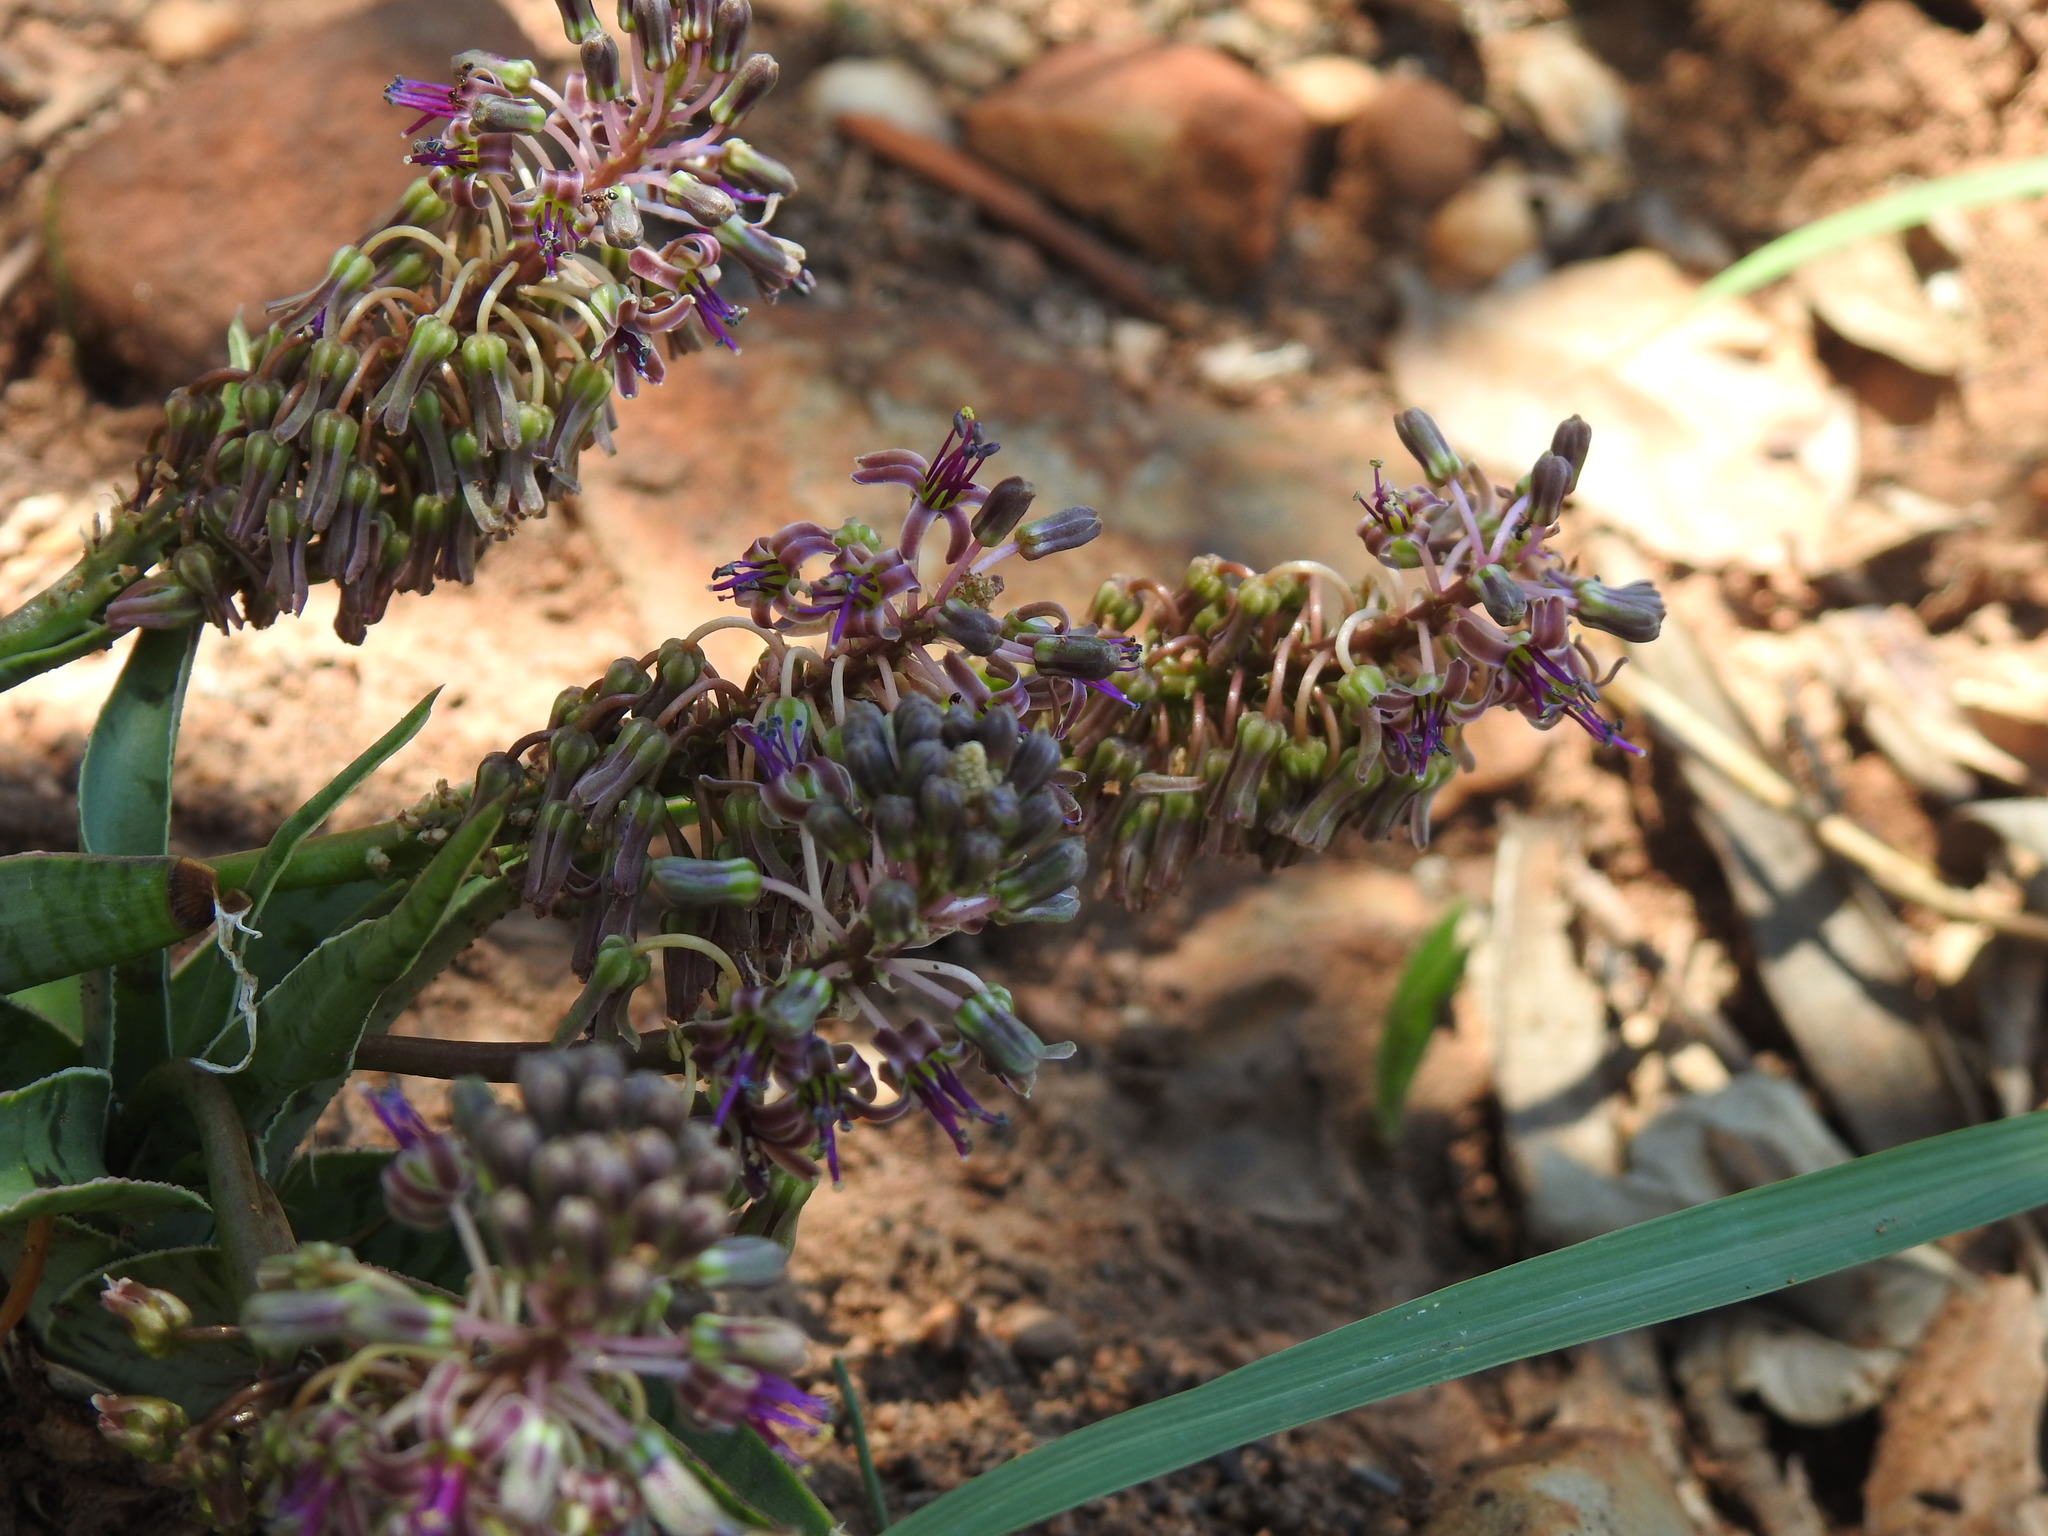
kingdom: Plantae
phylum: Tracheophyta
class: Liliopsida
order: Asparagales
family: Asparagaceae
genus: Ledebouria
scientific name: Ledebouria luteola
